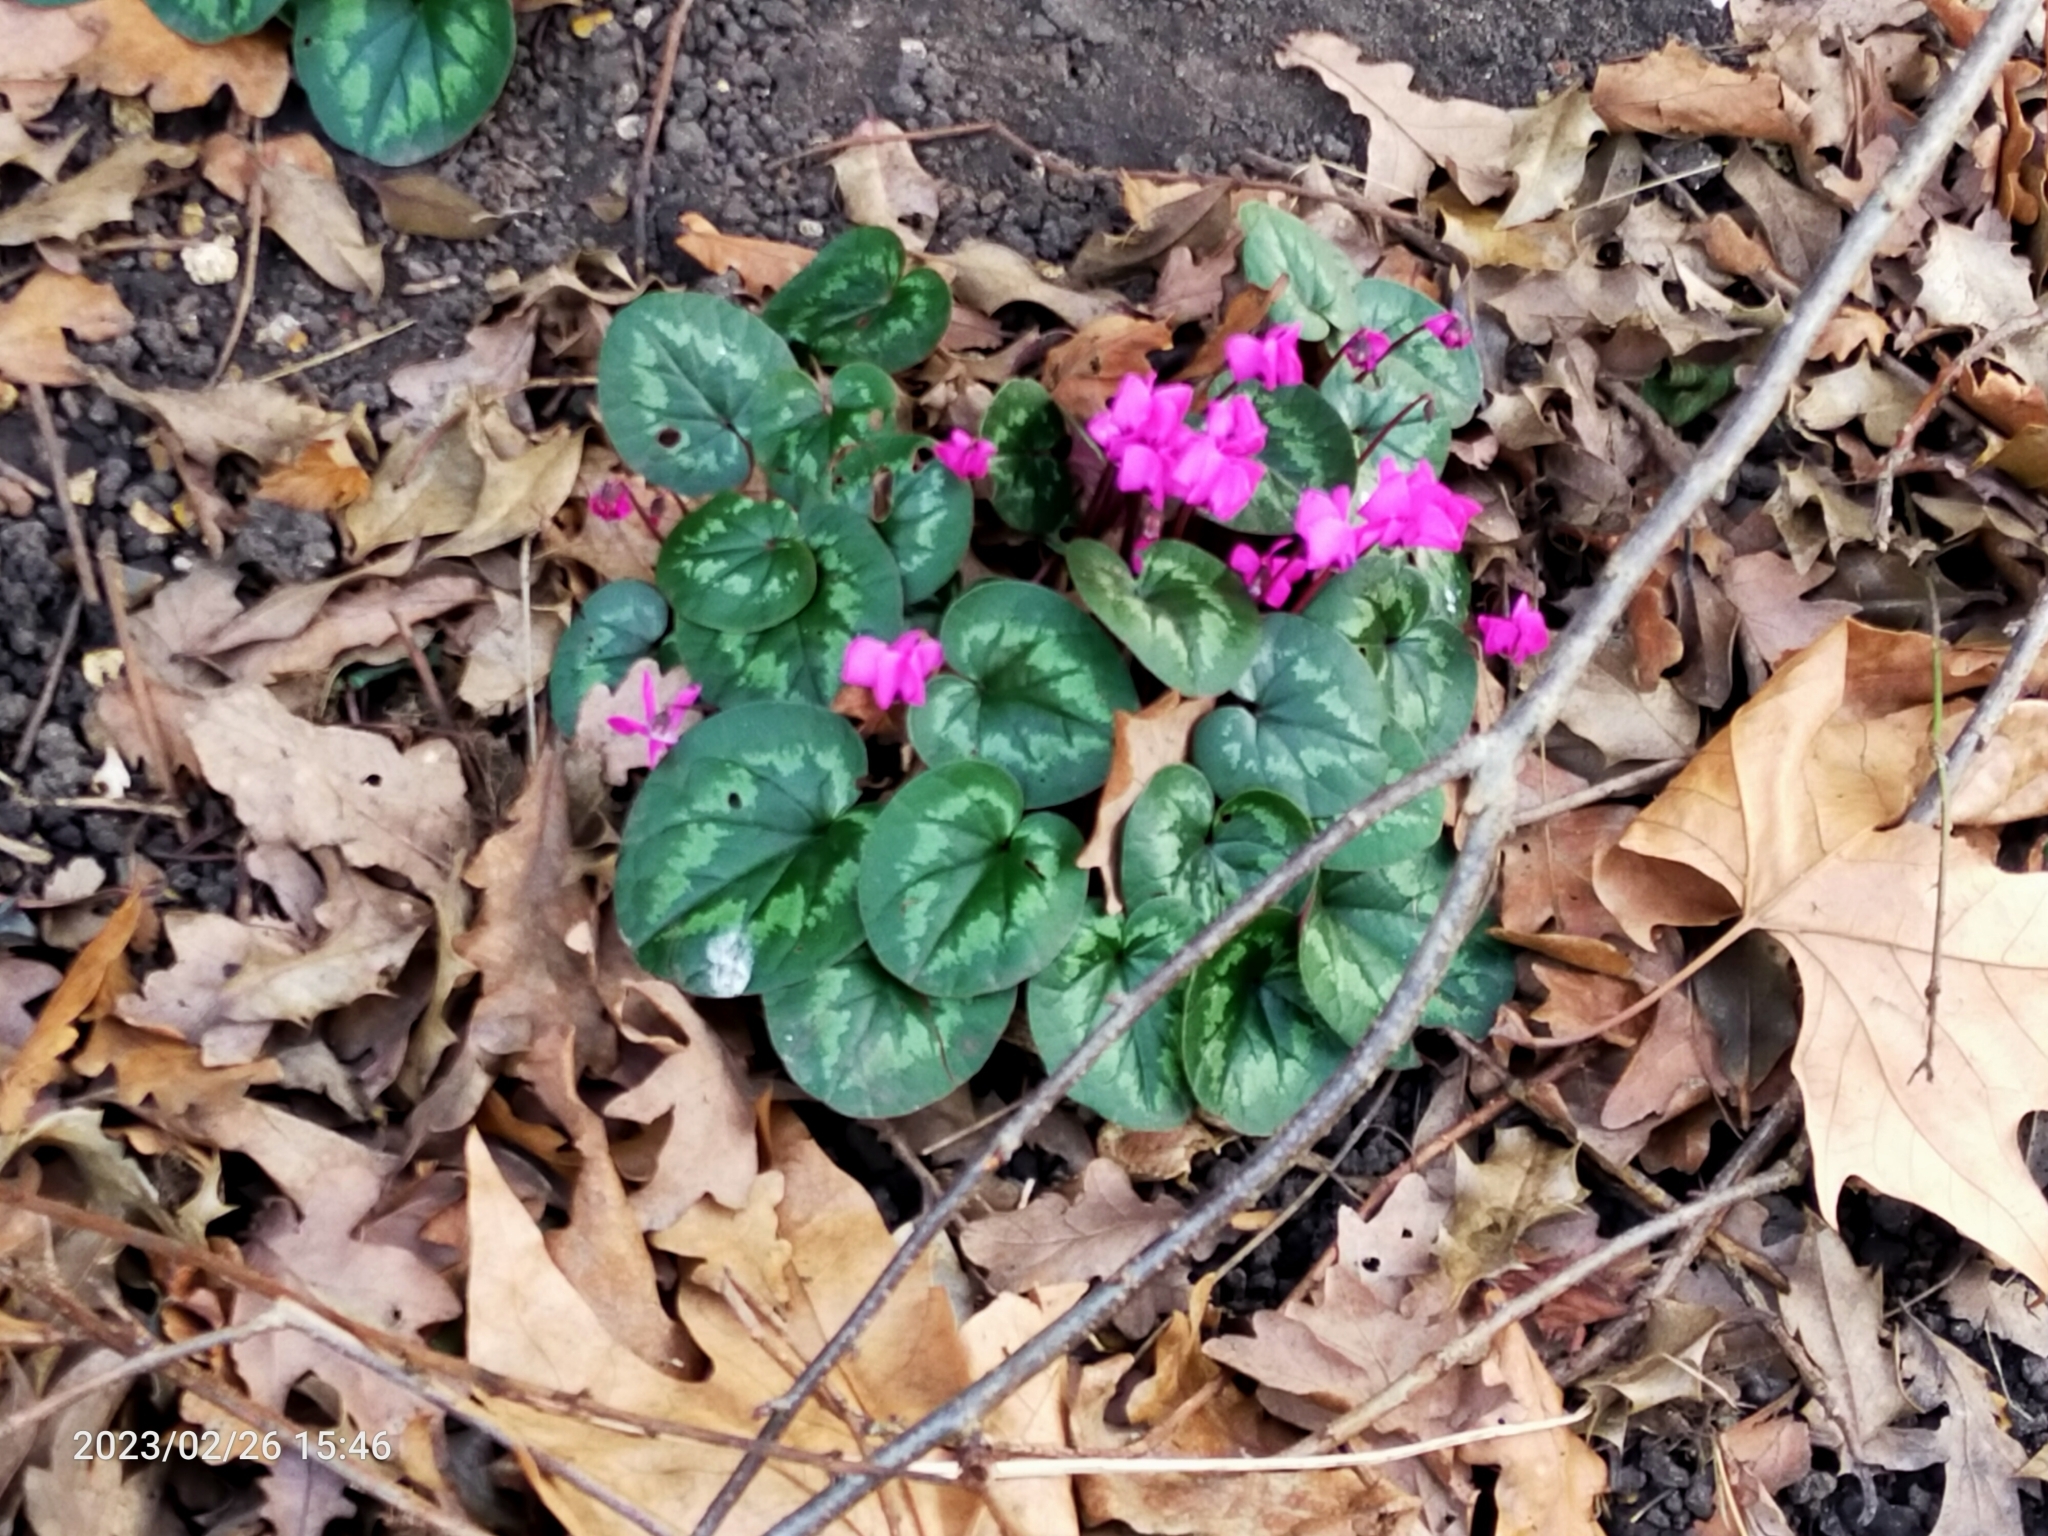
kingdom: Plantae
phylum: Tracheophyta
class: Magnoliopsida
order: Ericales
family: Primulaceae
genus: Cyclamen
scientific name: Cyclamen coum
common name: Eastern sowbread
